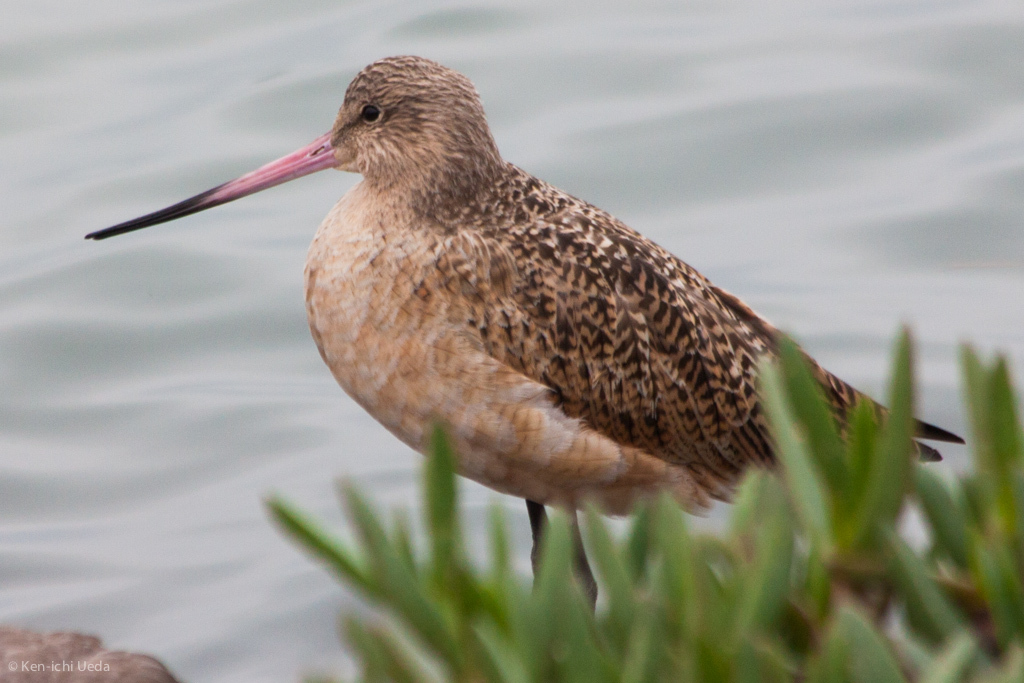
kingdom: Animalia
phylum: Chordata
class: Aves
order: Charadriiformes
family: Scolopacidae
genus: Limosa
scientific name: Limosa fedoa
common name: Marbled godwit
